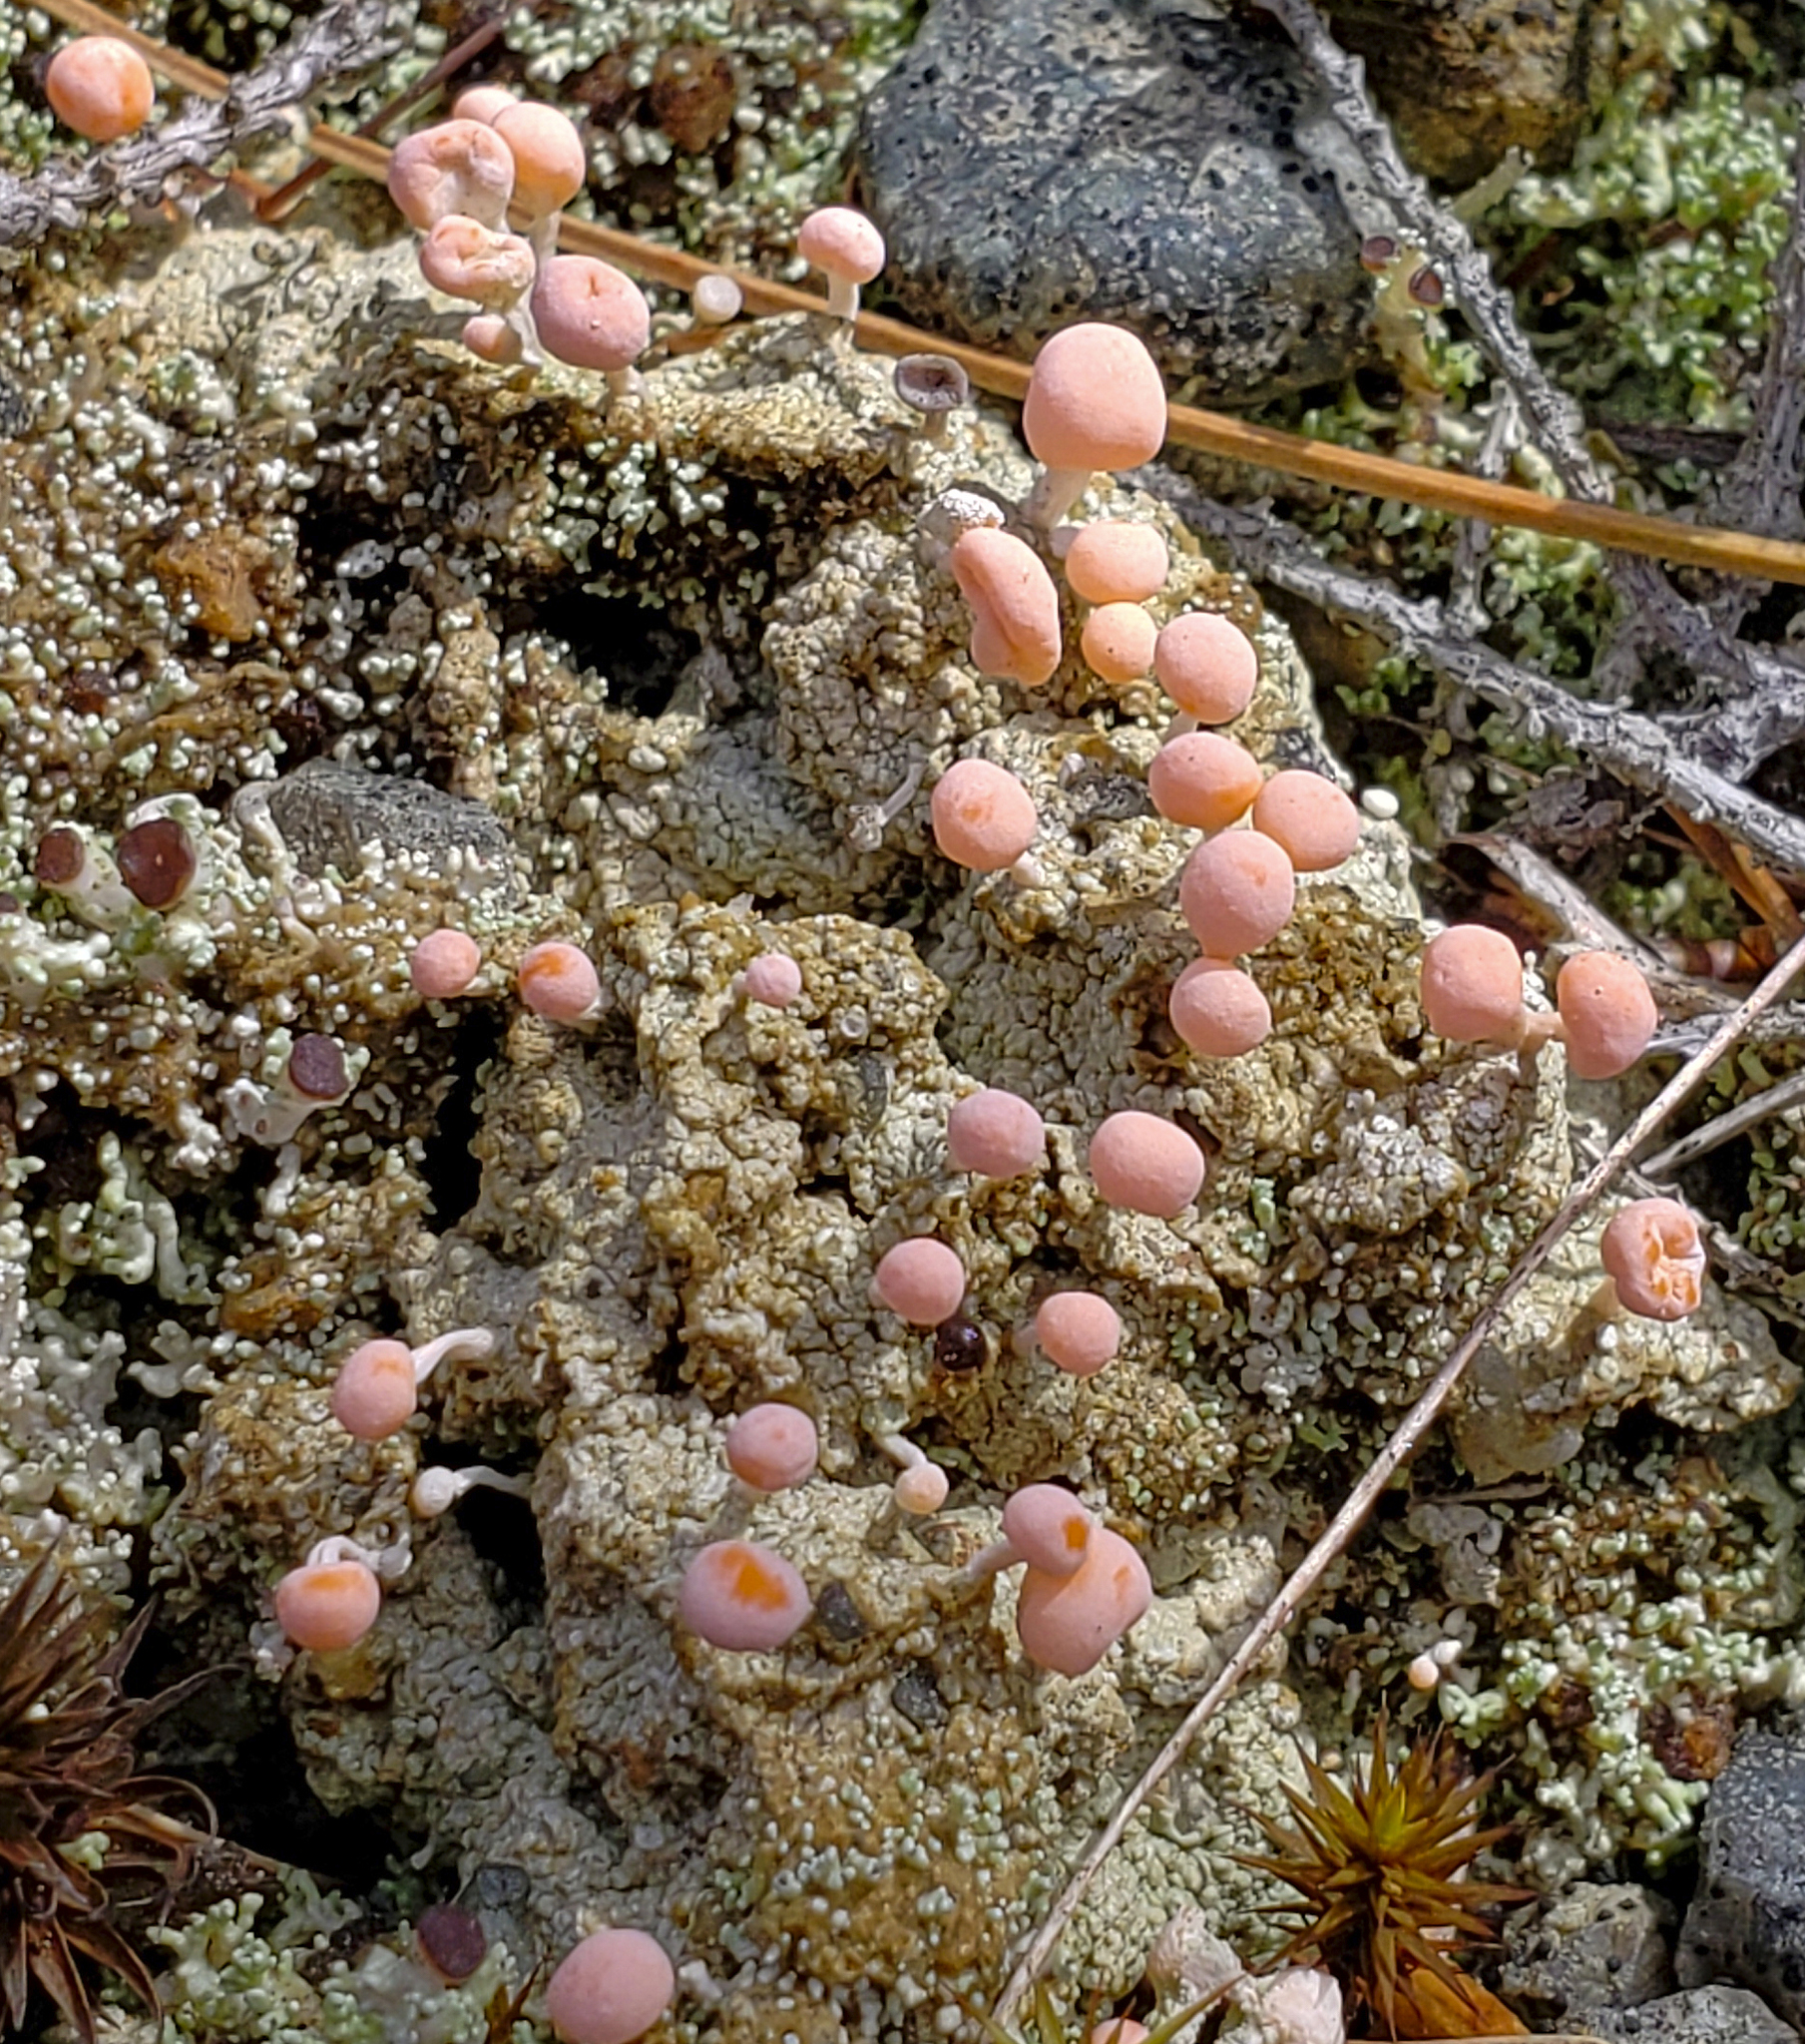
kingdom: Fungi
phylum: Ascomycota
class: Lecanoromycetes
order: Pertusariales
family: Icmadophilaceae
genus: Dibaeis
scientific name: Dibaeis baeomyces
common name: Pink earth lichen
